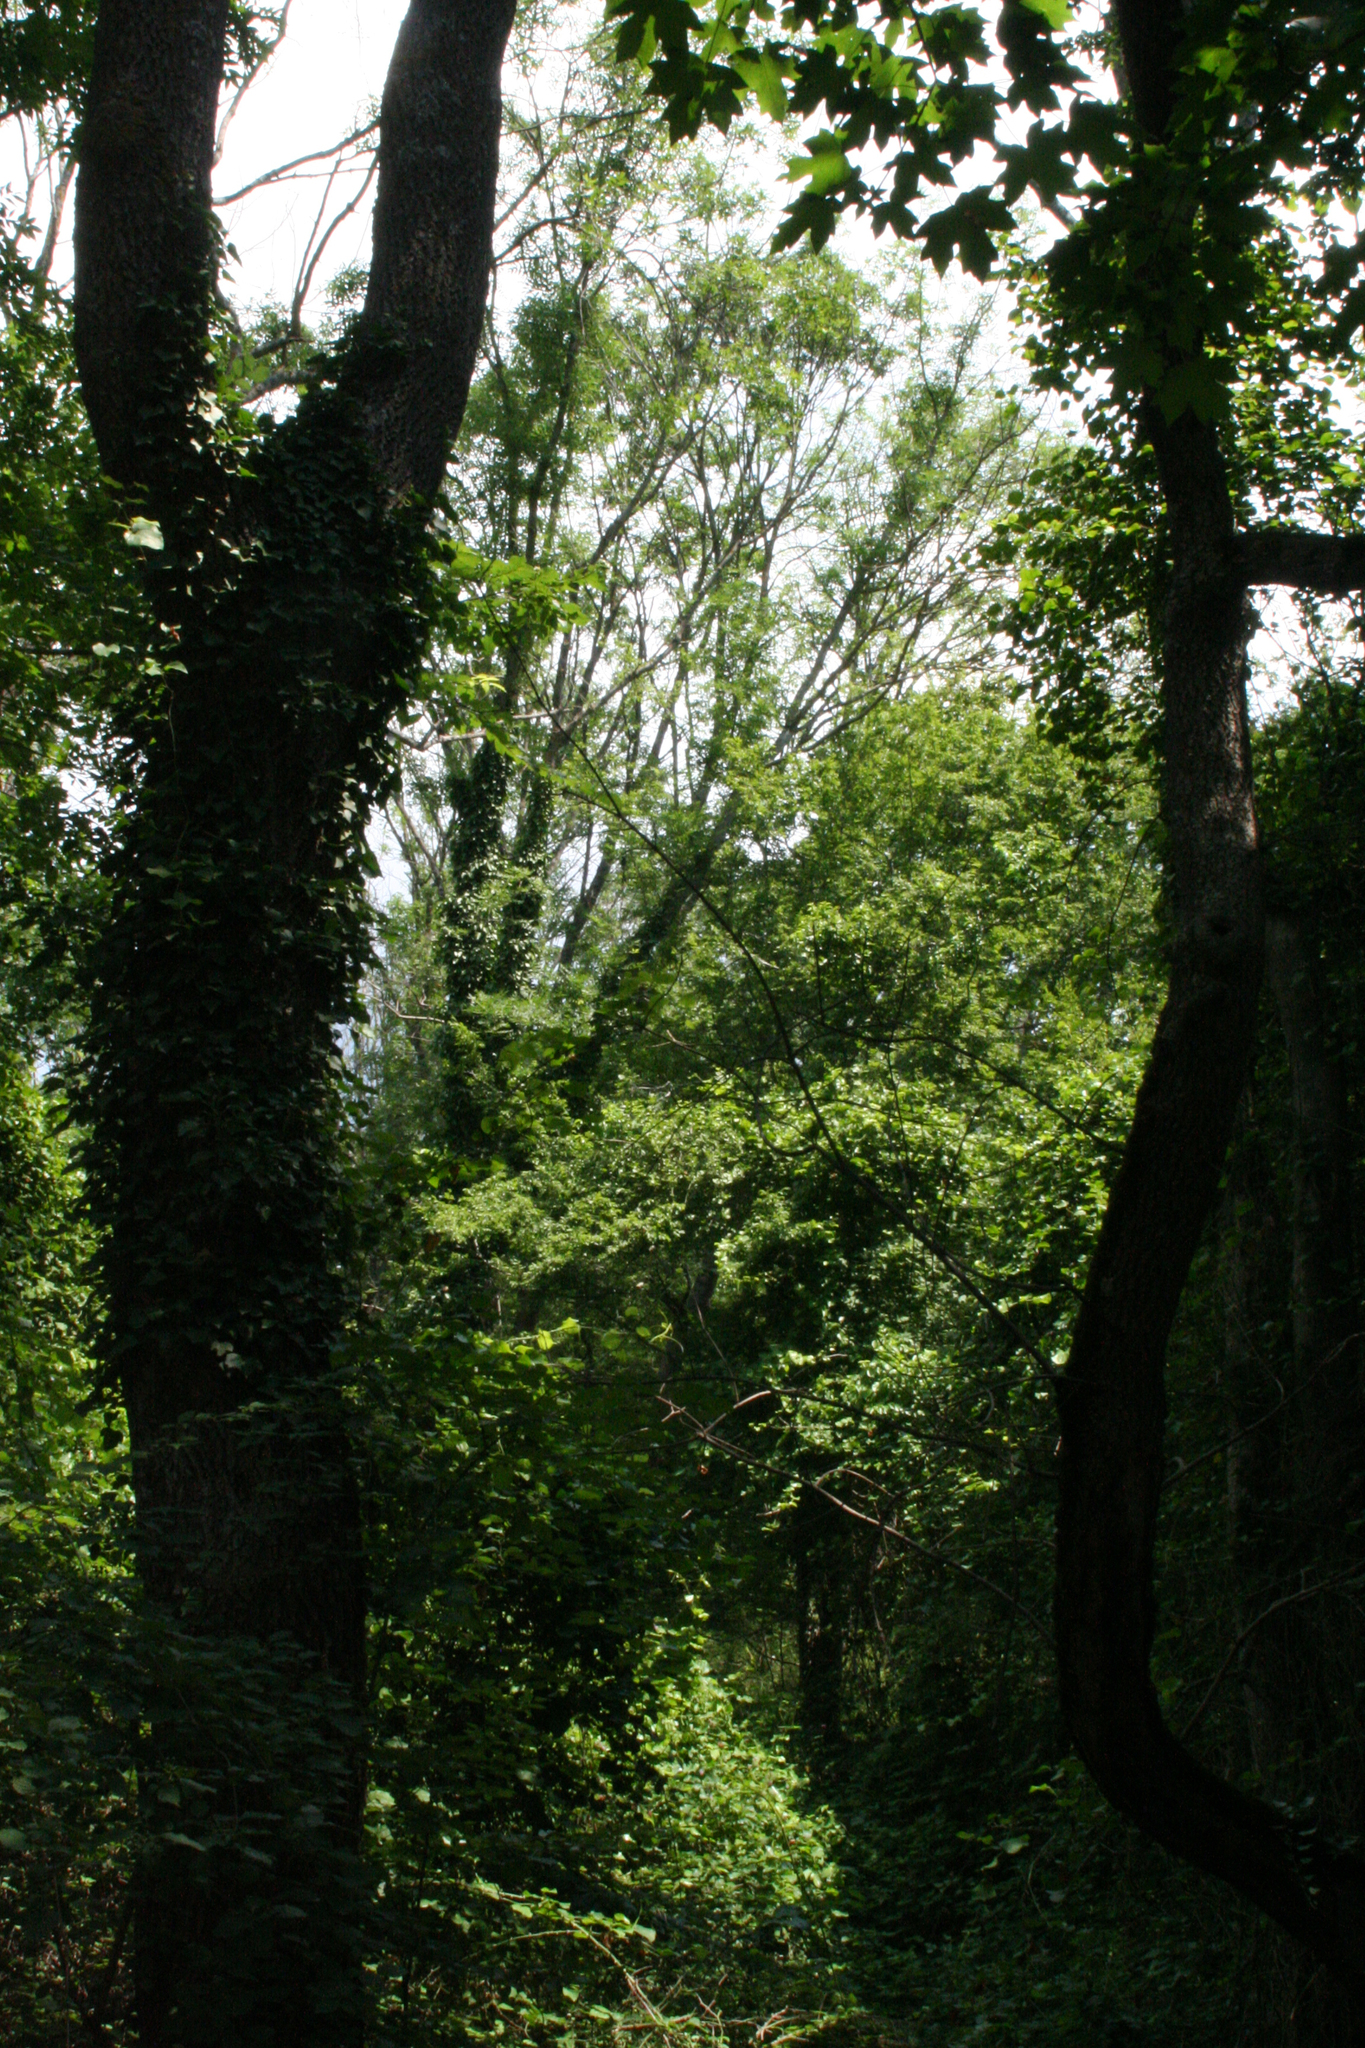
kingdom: Plantae
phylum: Tracheophyta
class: Magnoliopsida
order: Apiales
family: Araliaceae
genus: Hedera
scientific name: Hedera helix
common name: Ivy
